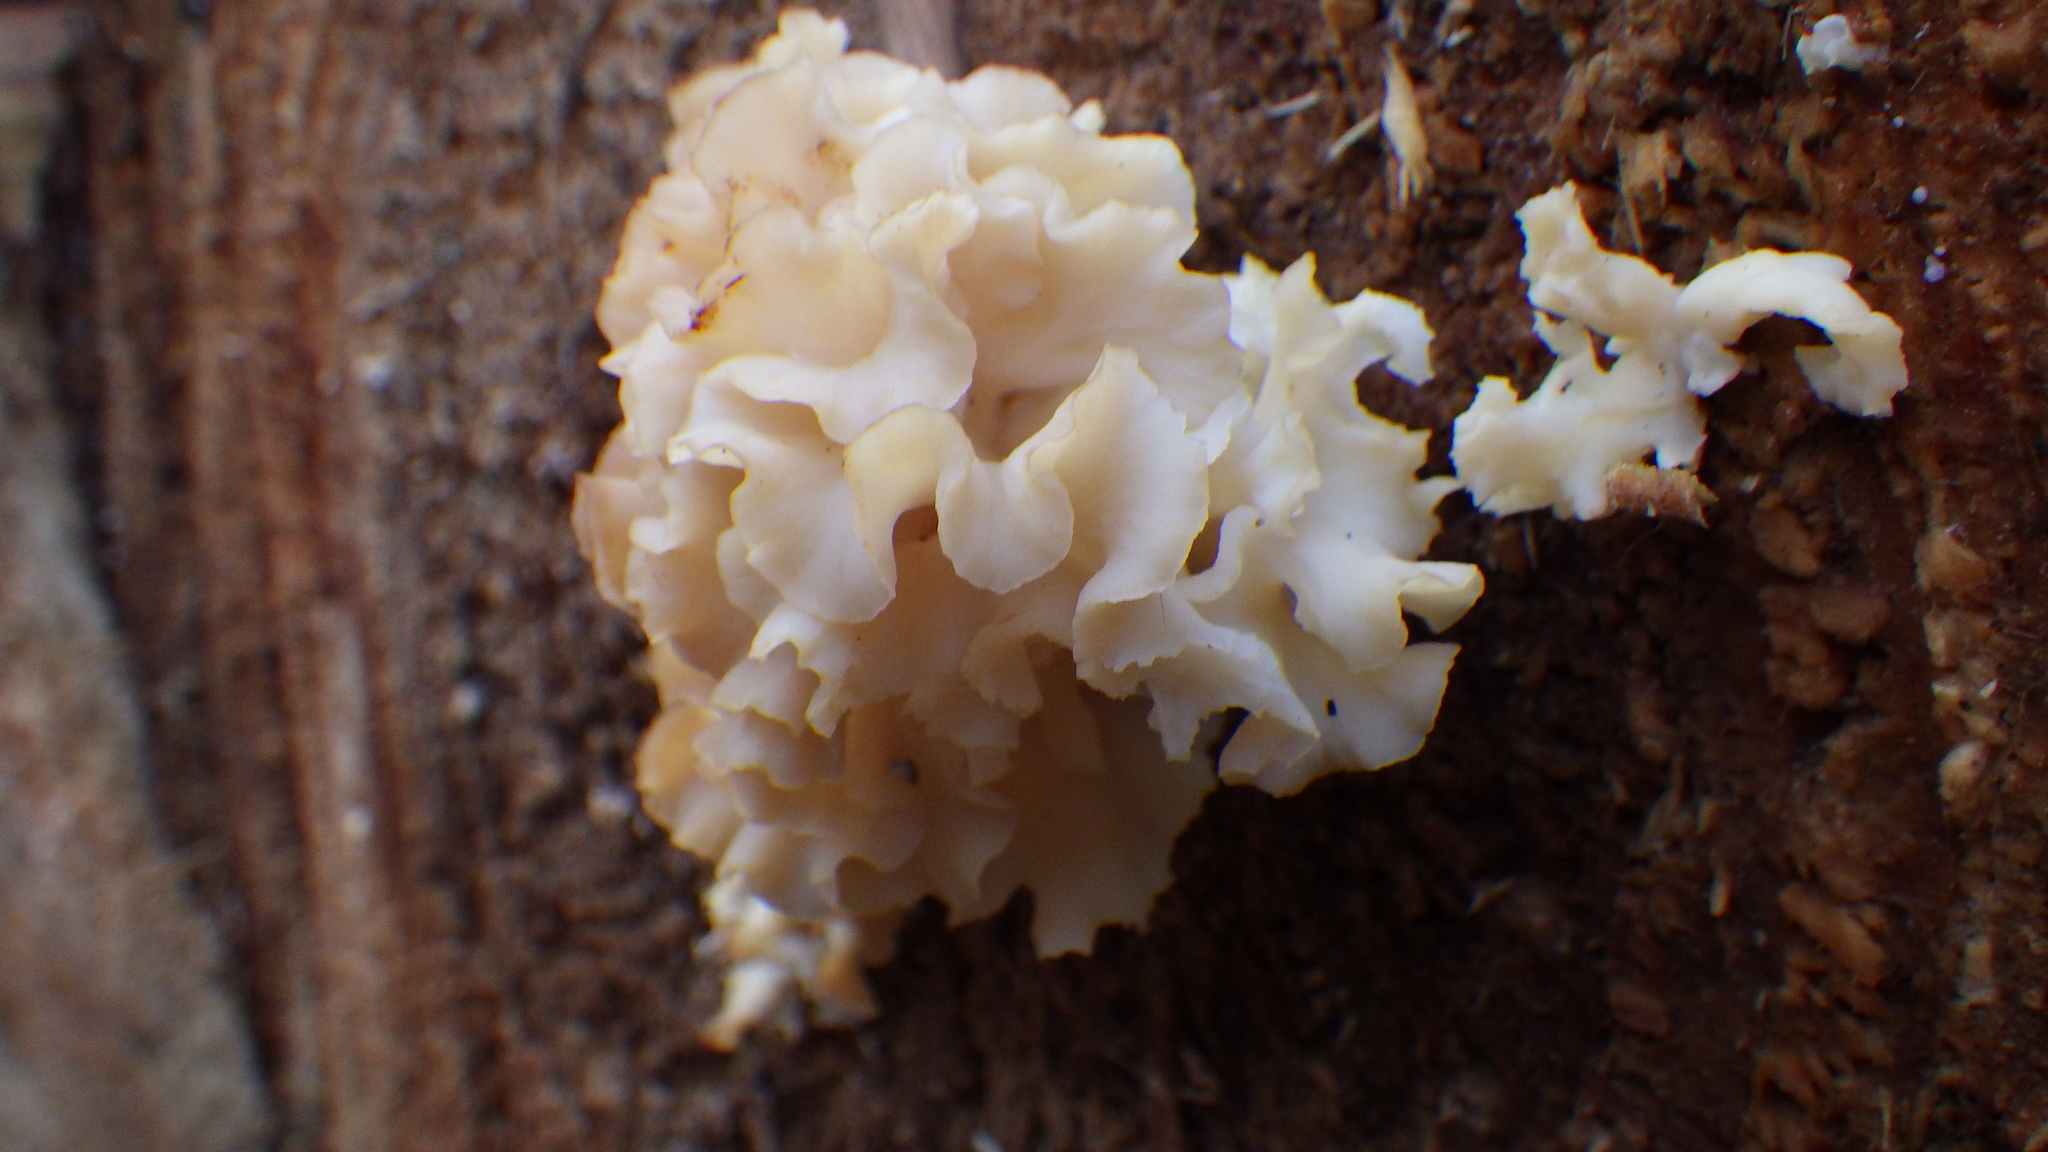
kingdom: Fungi
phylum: Basidiomycota
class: Agaricomycetes
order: Polyporales
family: Sparassidaceae
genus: Sparassis
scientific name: Sparassis crispa
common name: Brain fungus
